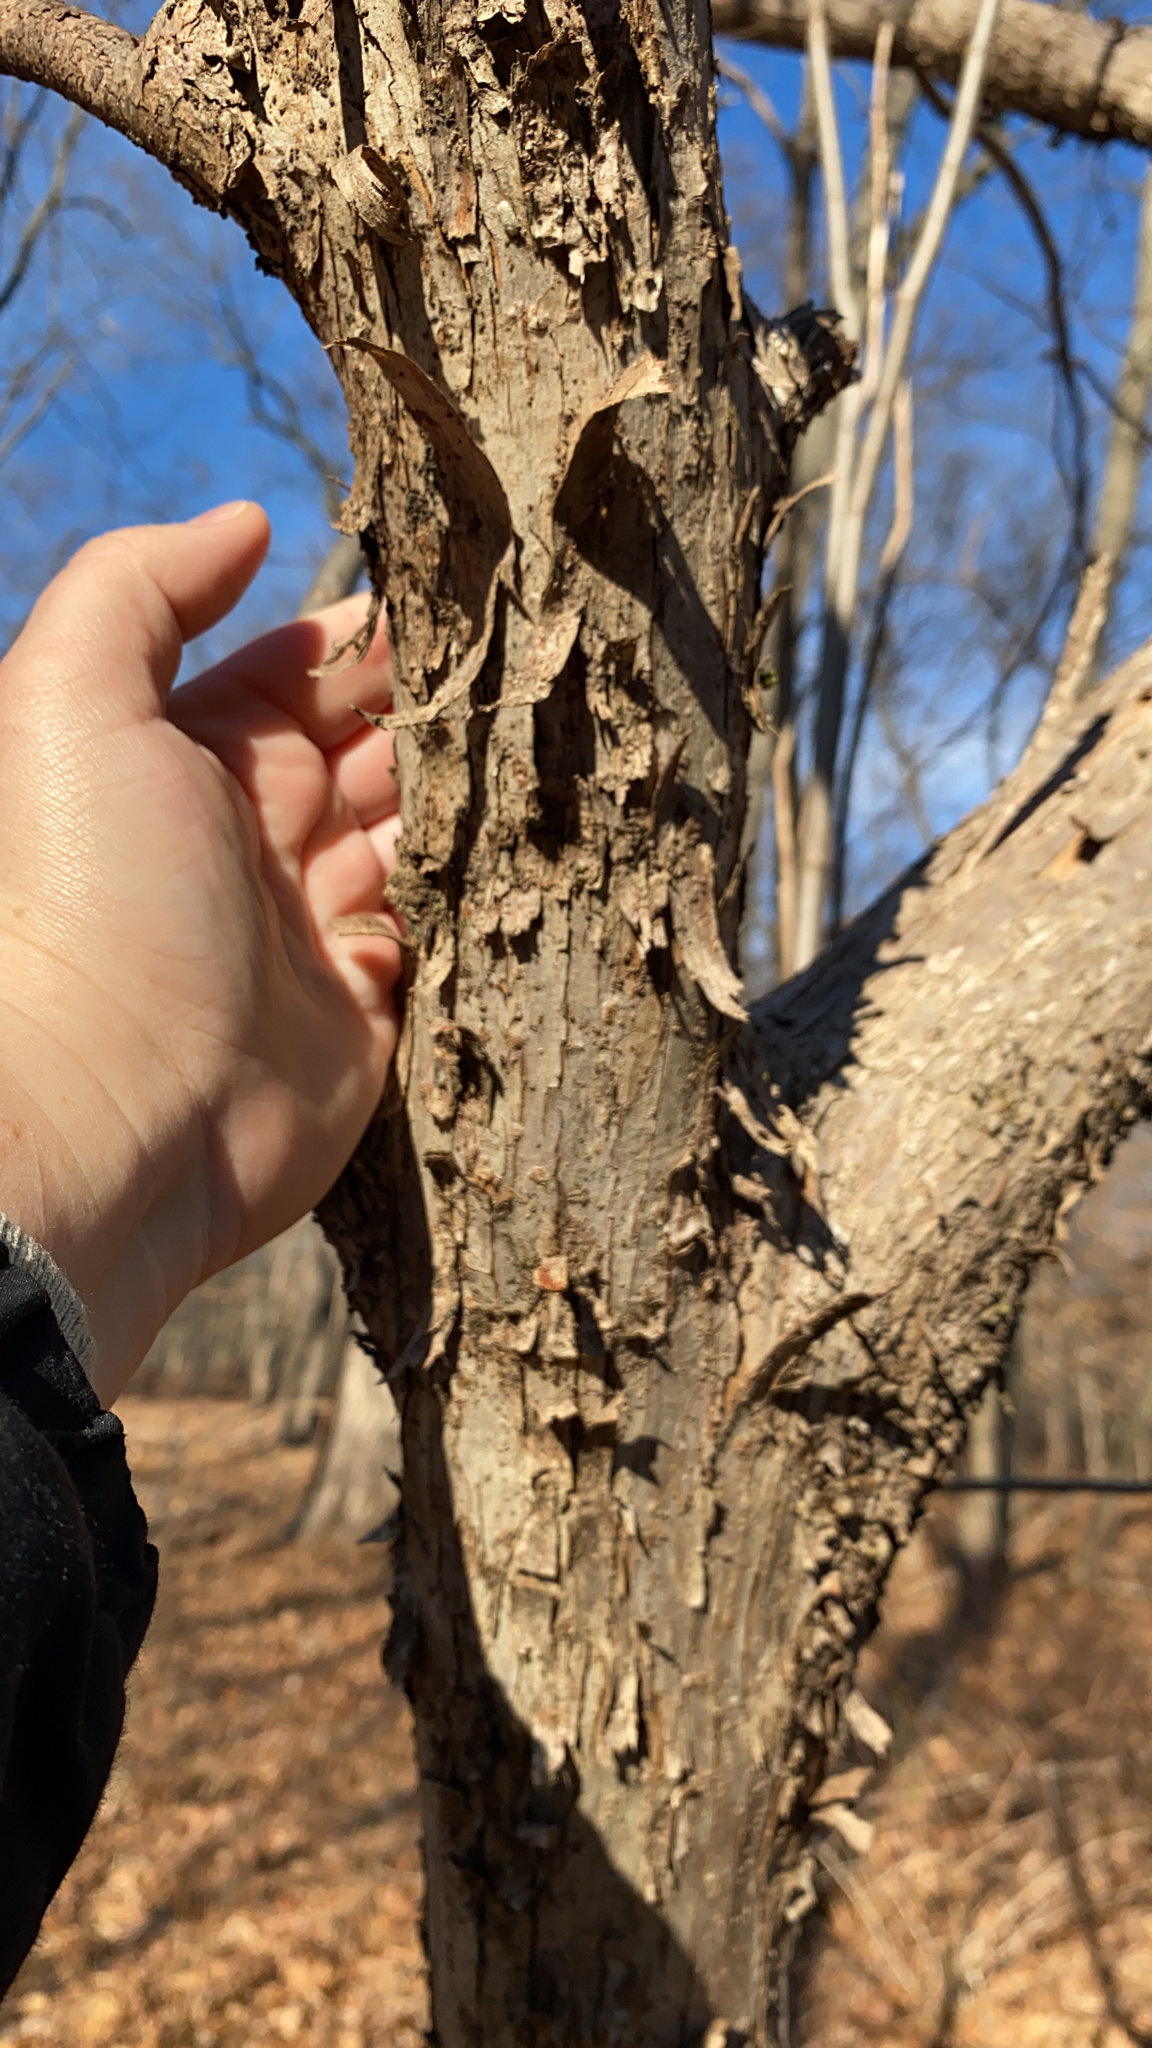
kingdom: Plantae
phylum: Tracheophyta
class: Magnoliopsida
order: Fagales
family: Betulaceae
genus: Ostrya
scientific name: Ostrya virginiana
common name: Ironwood
